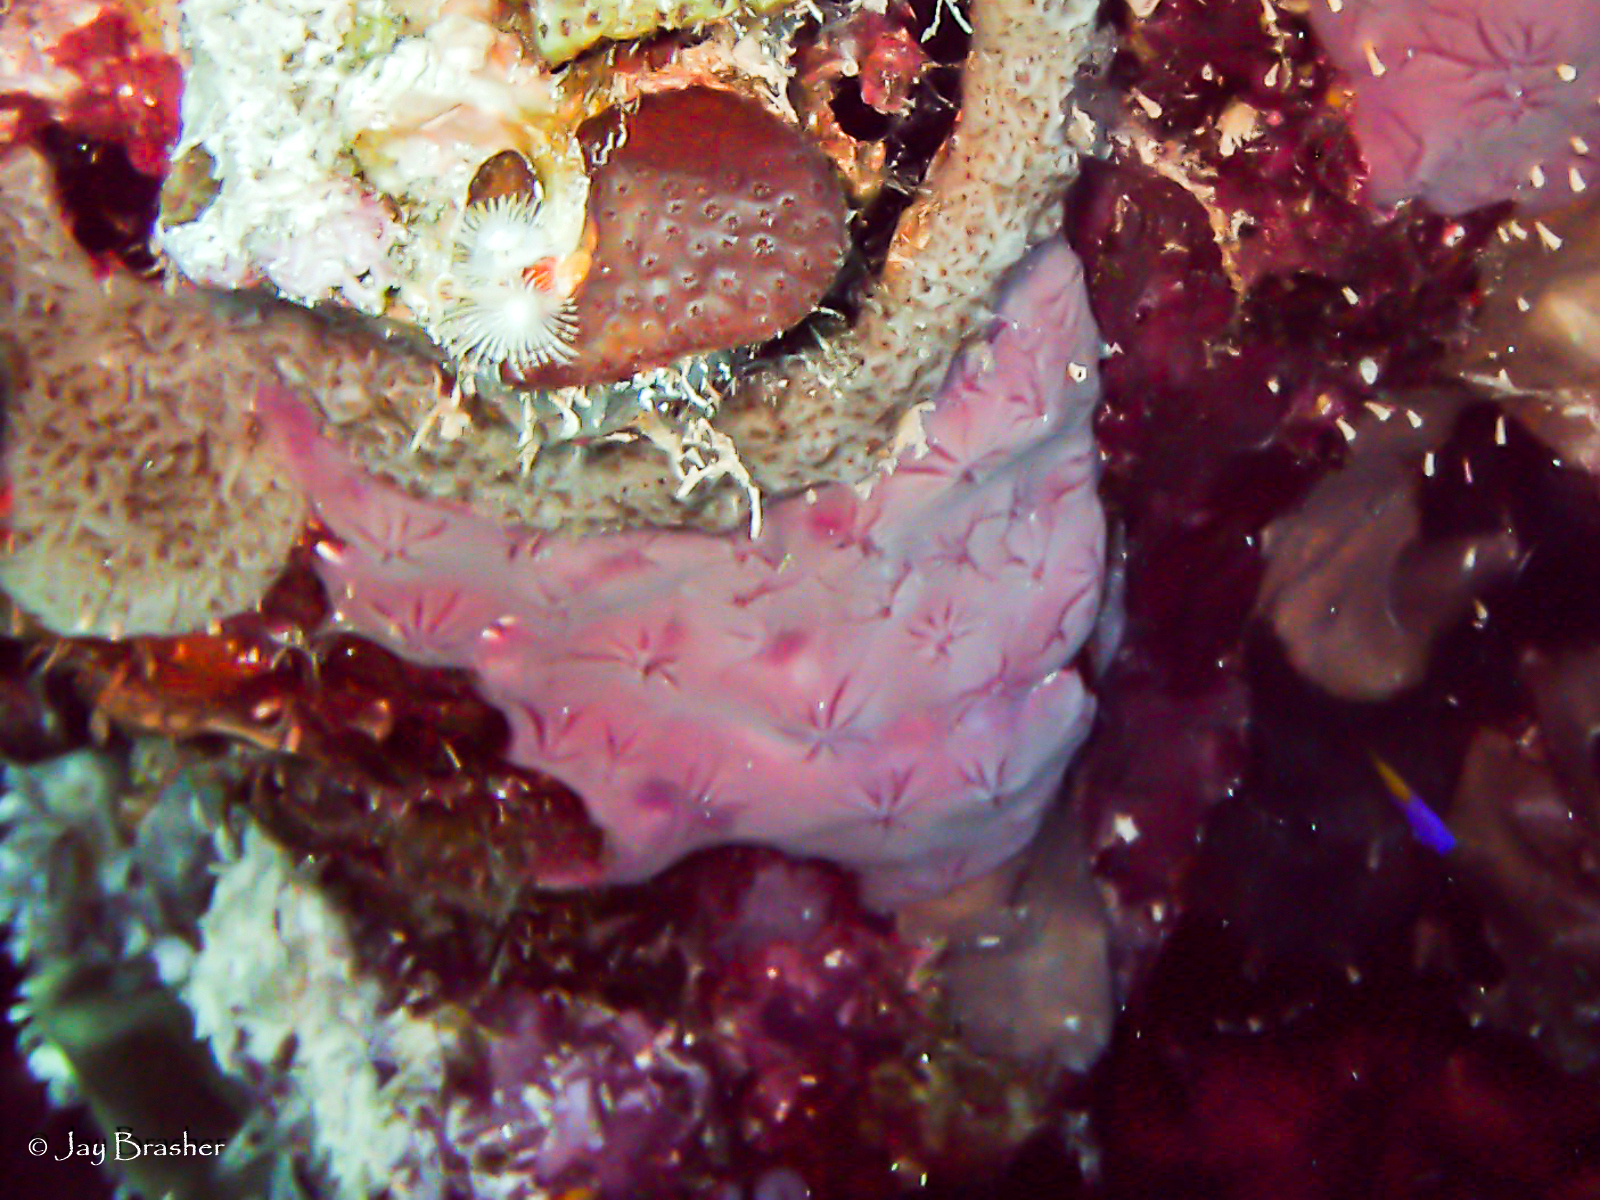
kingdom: Animalia
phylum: Porifera
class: Demospongiae
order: Chondrillida
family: Halisarcidae
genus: Halisarca
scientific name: Halisarca caerulea
